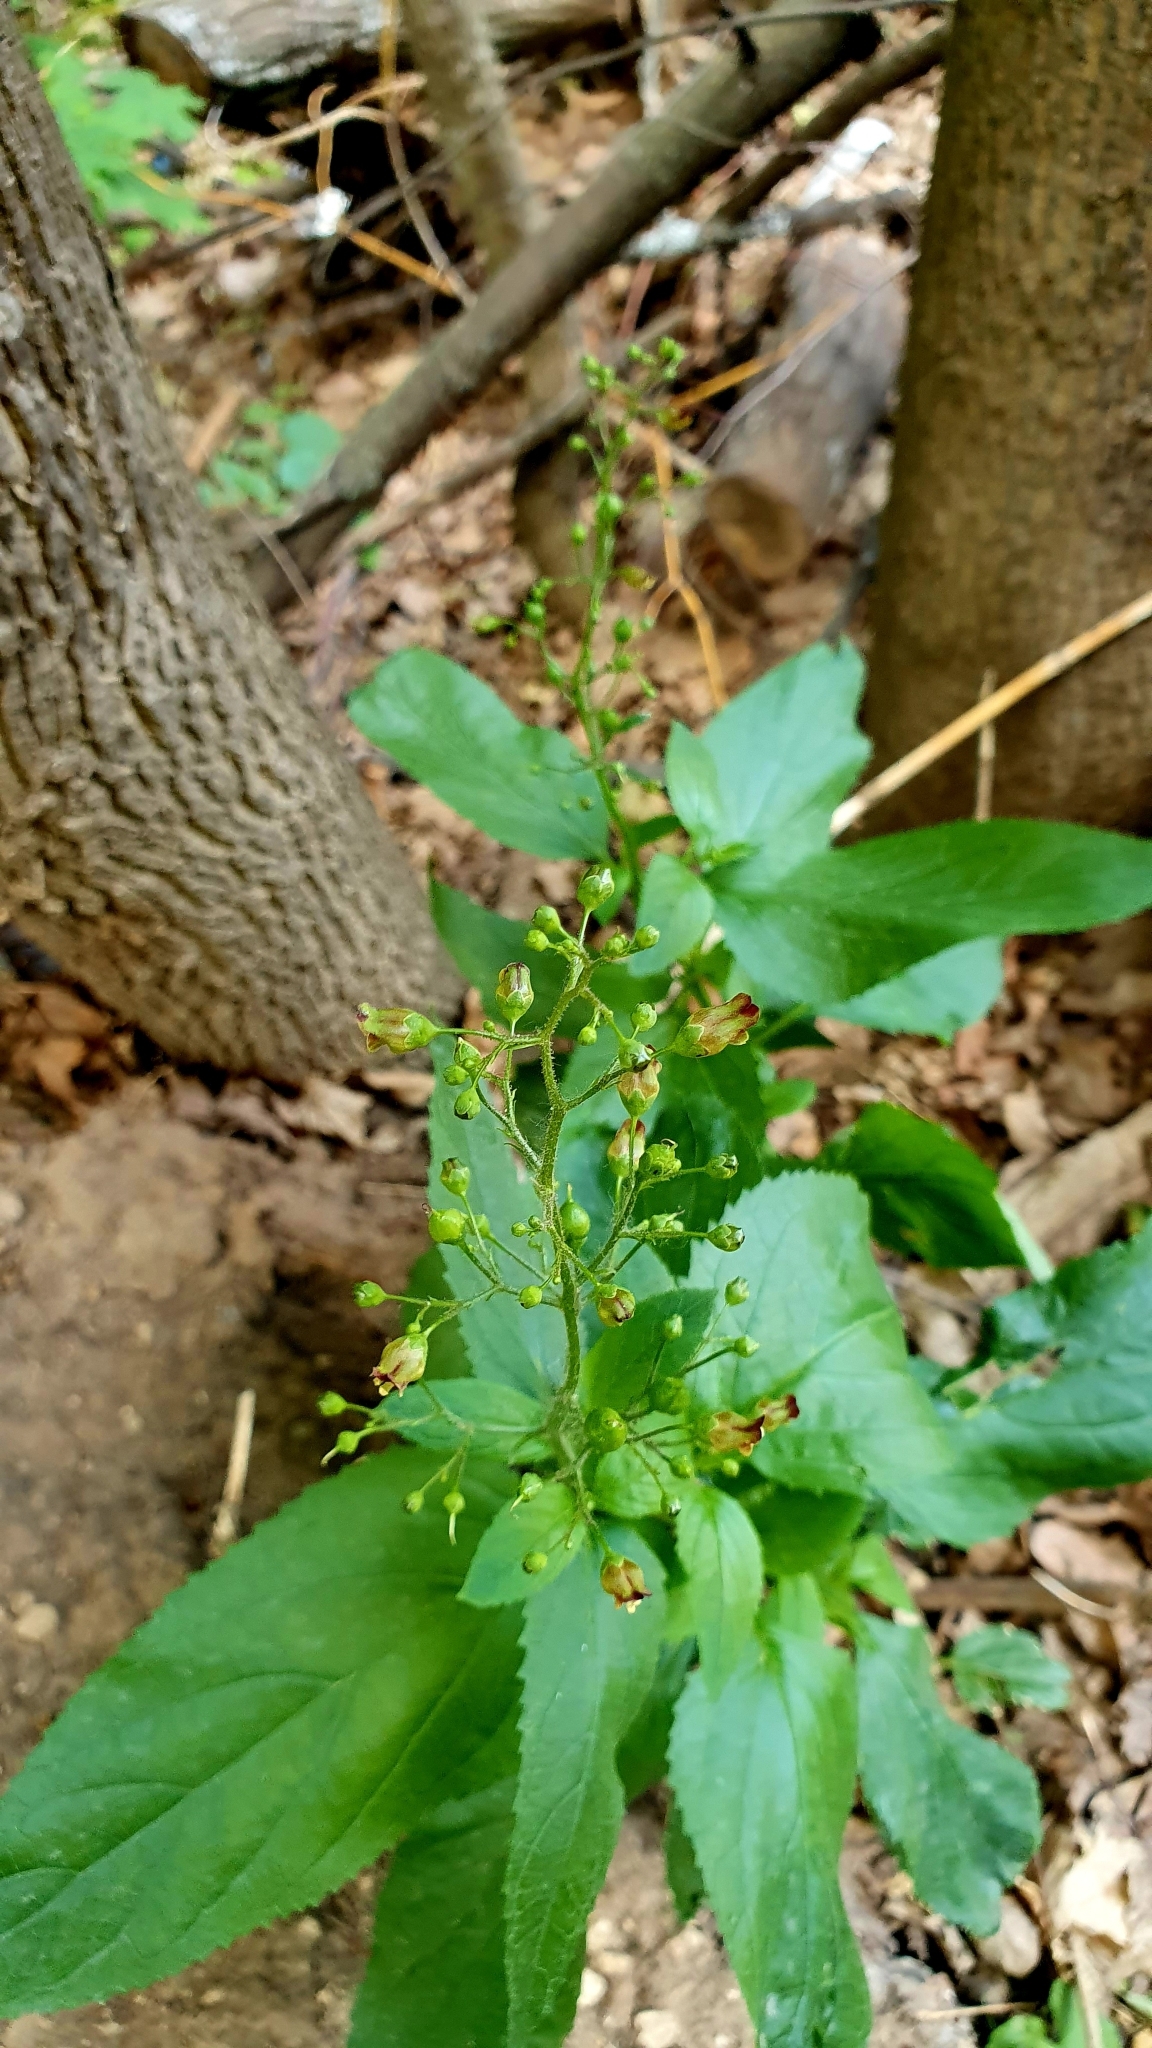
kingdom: Plantae
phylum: Tracheophyta
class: Magnoliopsida
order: Lamiales
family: Scrophulariaceae
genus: Scrophularia
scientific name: Scrophularia nodosa
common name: Common figwort
